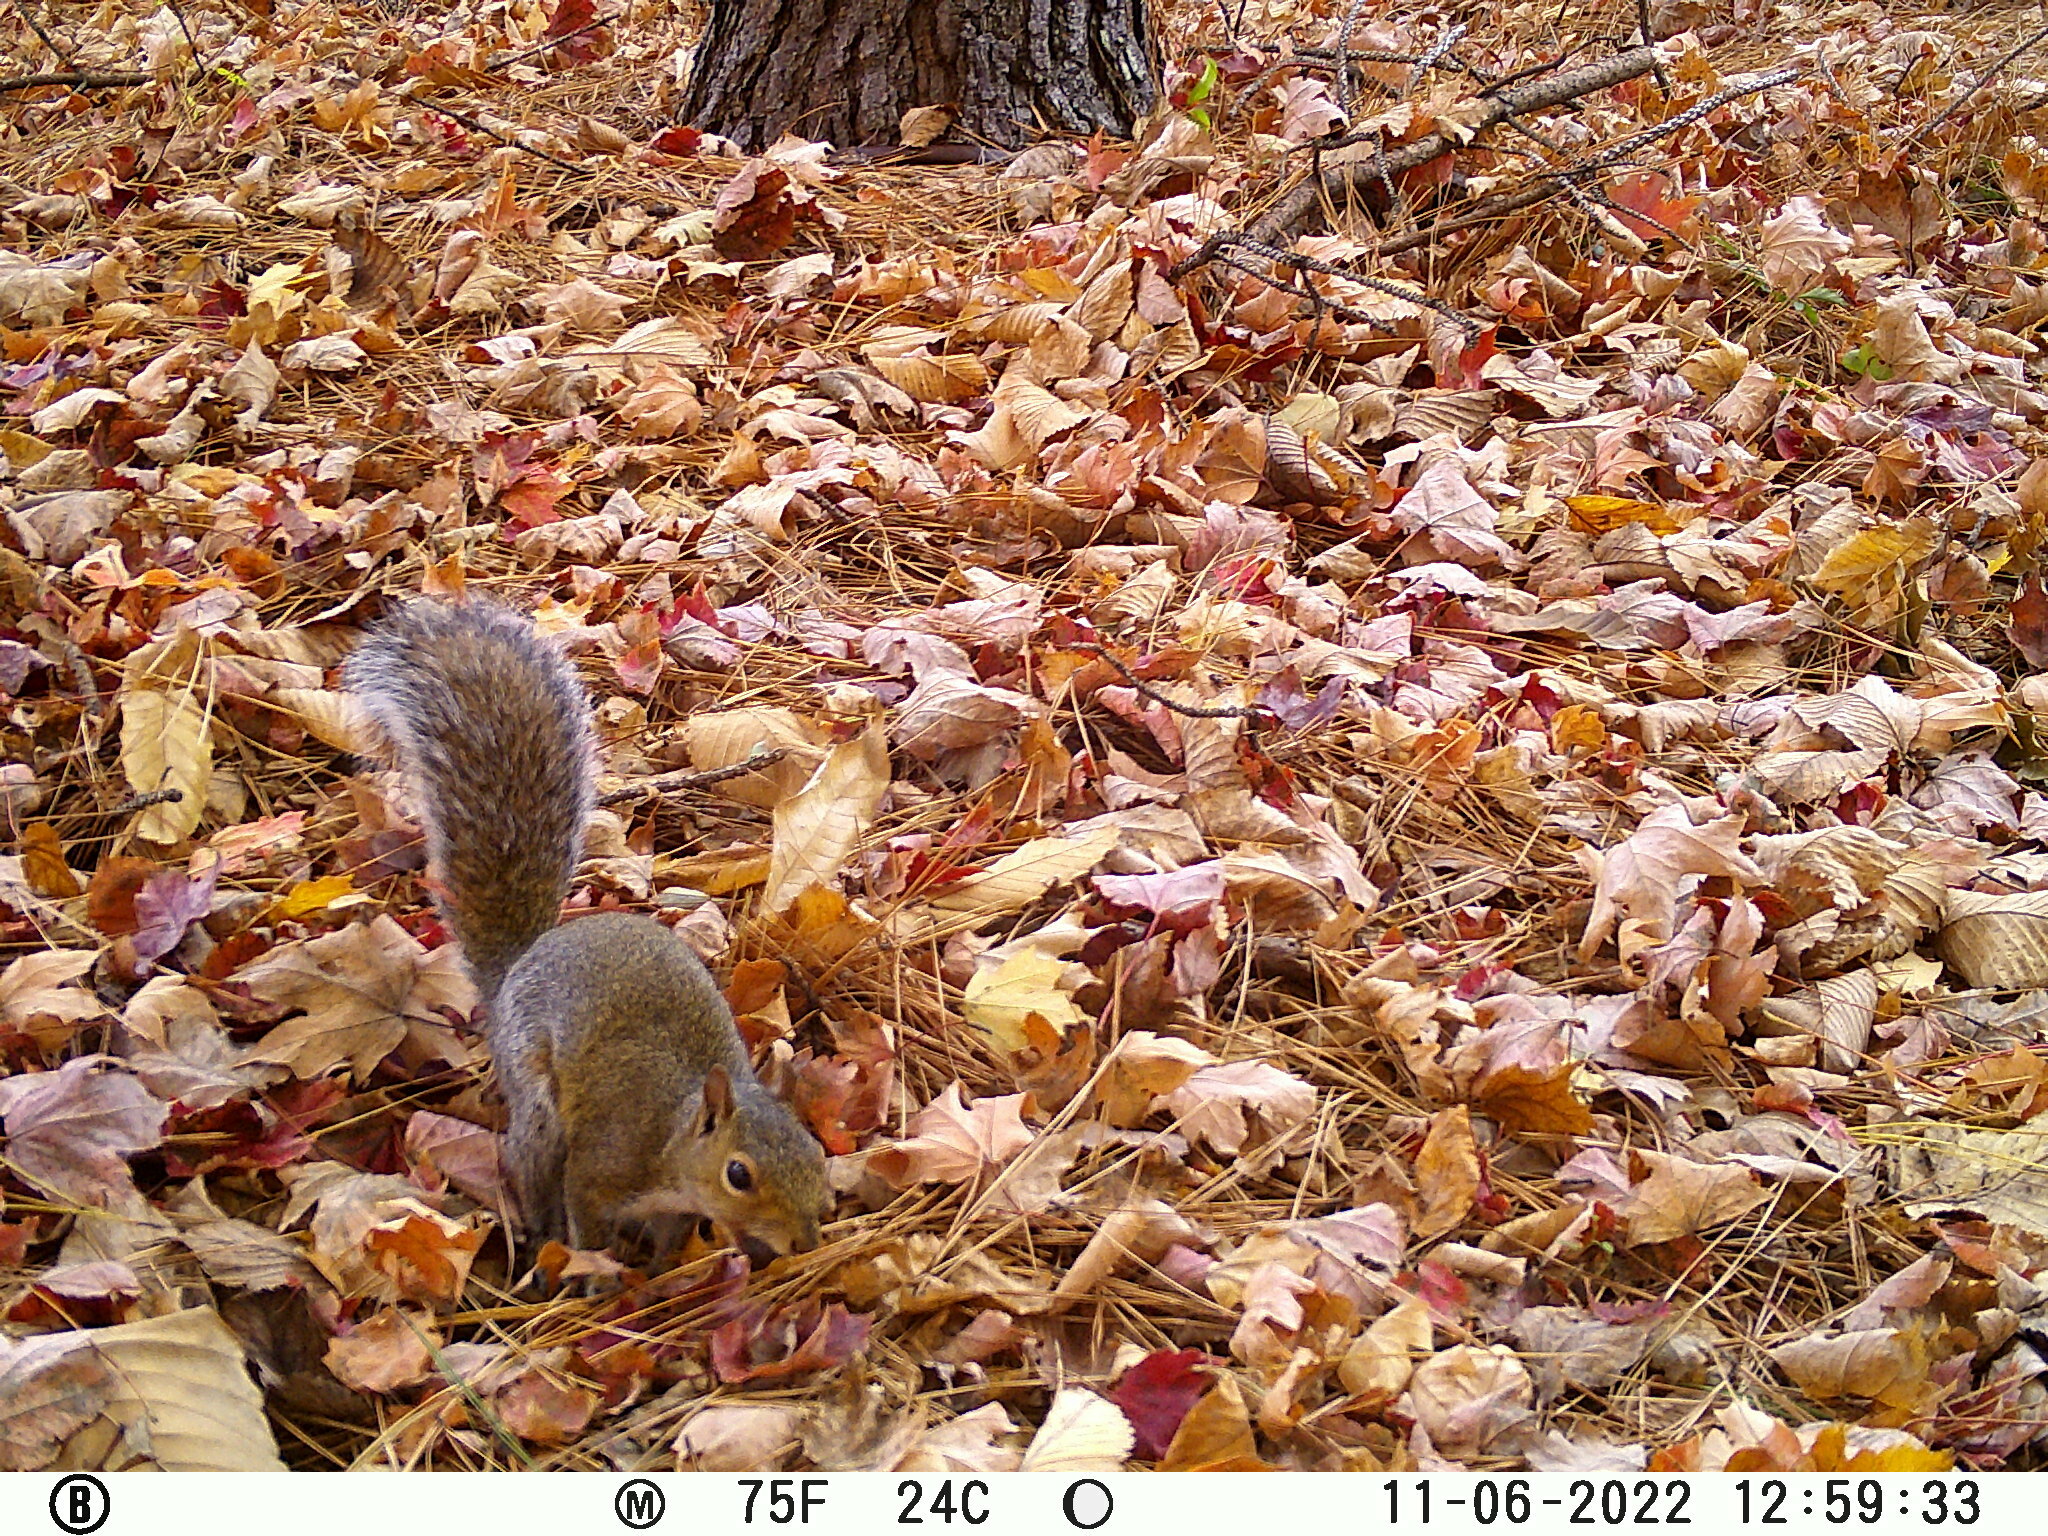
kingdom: Animalia
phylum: Chordata
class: Mammalia
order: Rodentia
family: Sciuridae
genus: Sciurus
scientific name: Sciurus carolinensis
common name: Eastern gray squirrel
